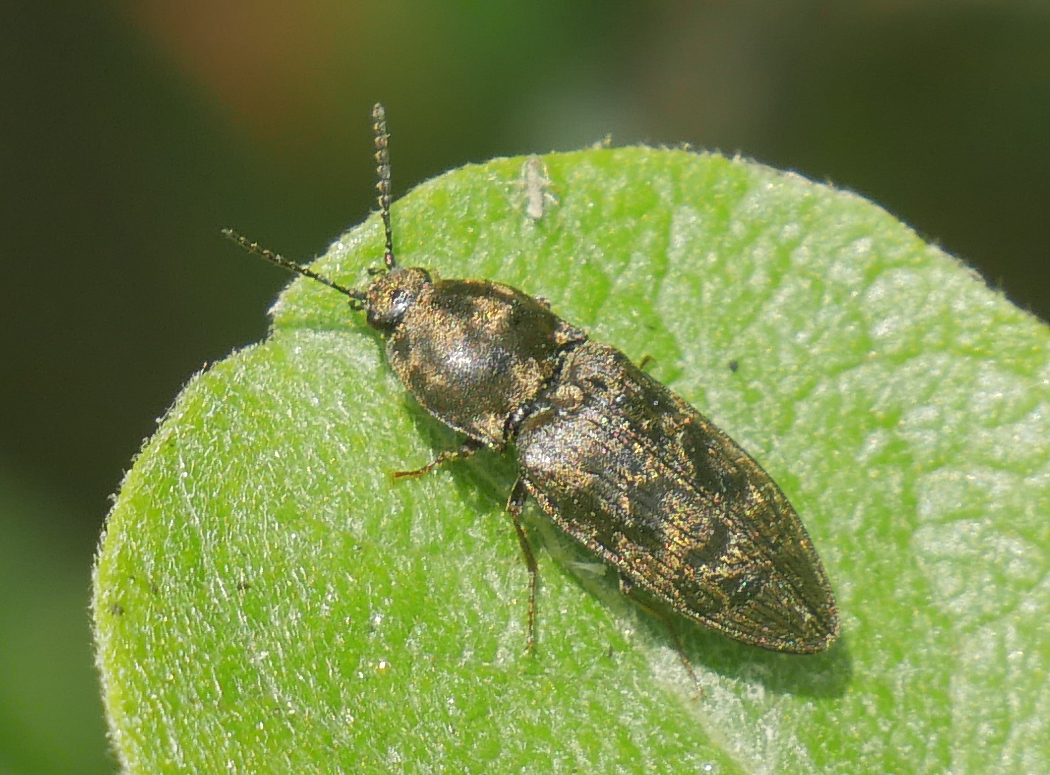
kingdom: Animalia
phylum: Arthropoda
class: Insecta
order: Coleoptera
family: Elateridae
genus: Prosternon
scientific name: Prosternon tessellatum
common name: Chequered click beetle
